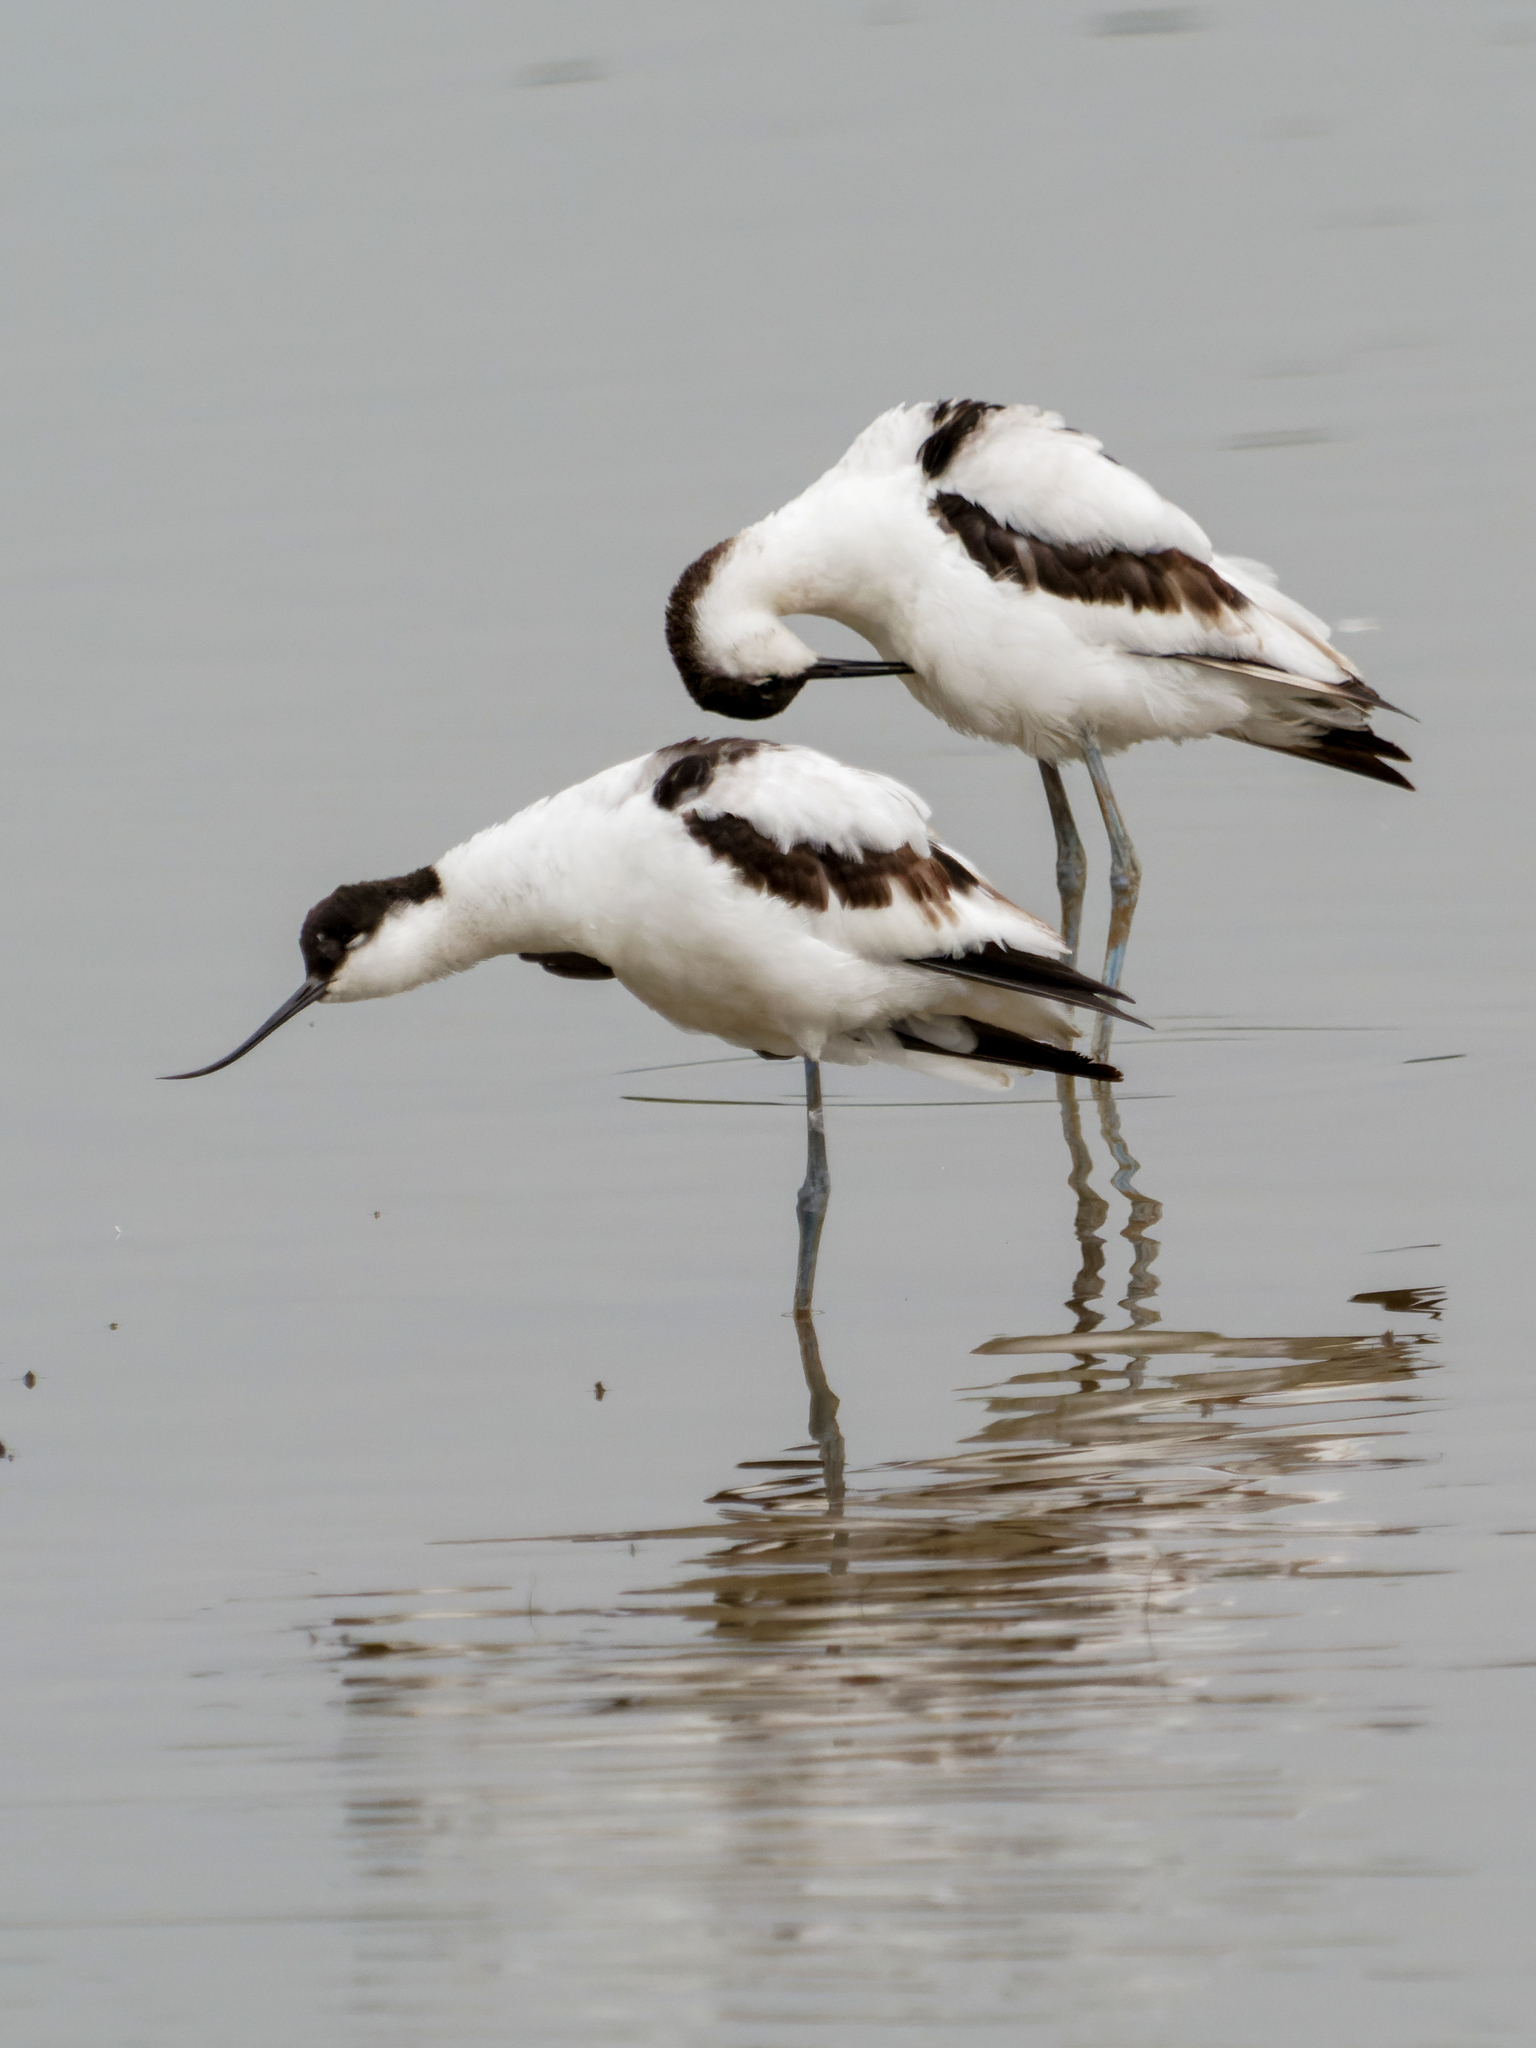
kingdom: Animalia
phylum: Chordata
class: Aves
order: Charadriiformes
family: Recurvirostridae
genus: Recurvirostra
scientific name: Recurvirostra avosetta
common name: Pied avocet
